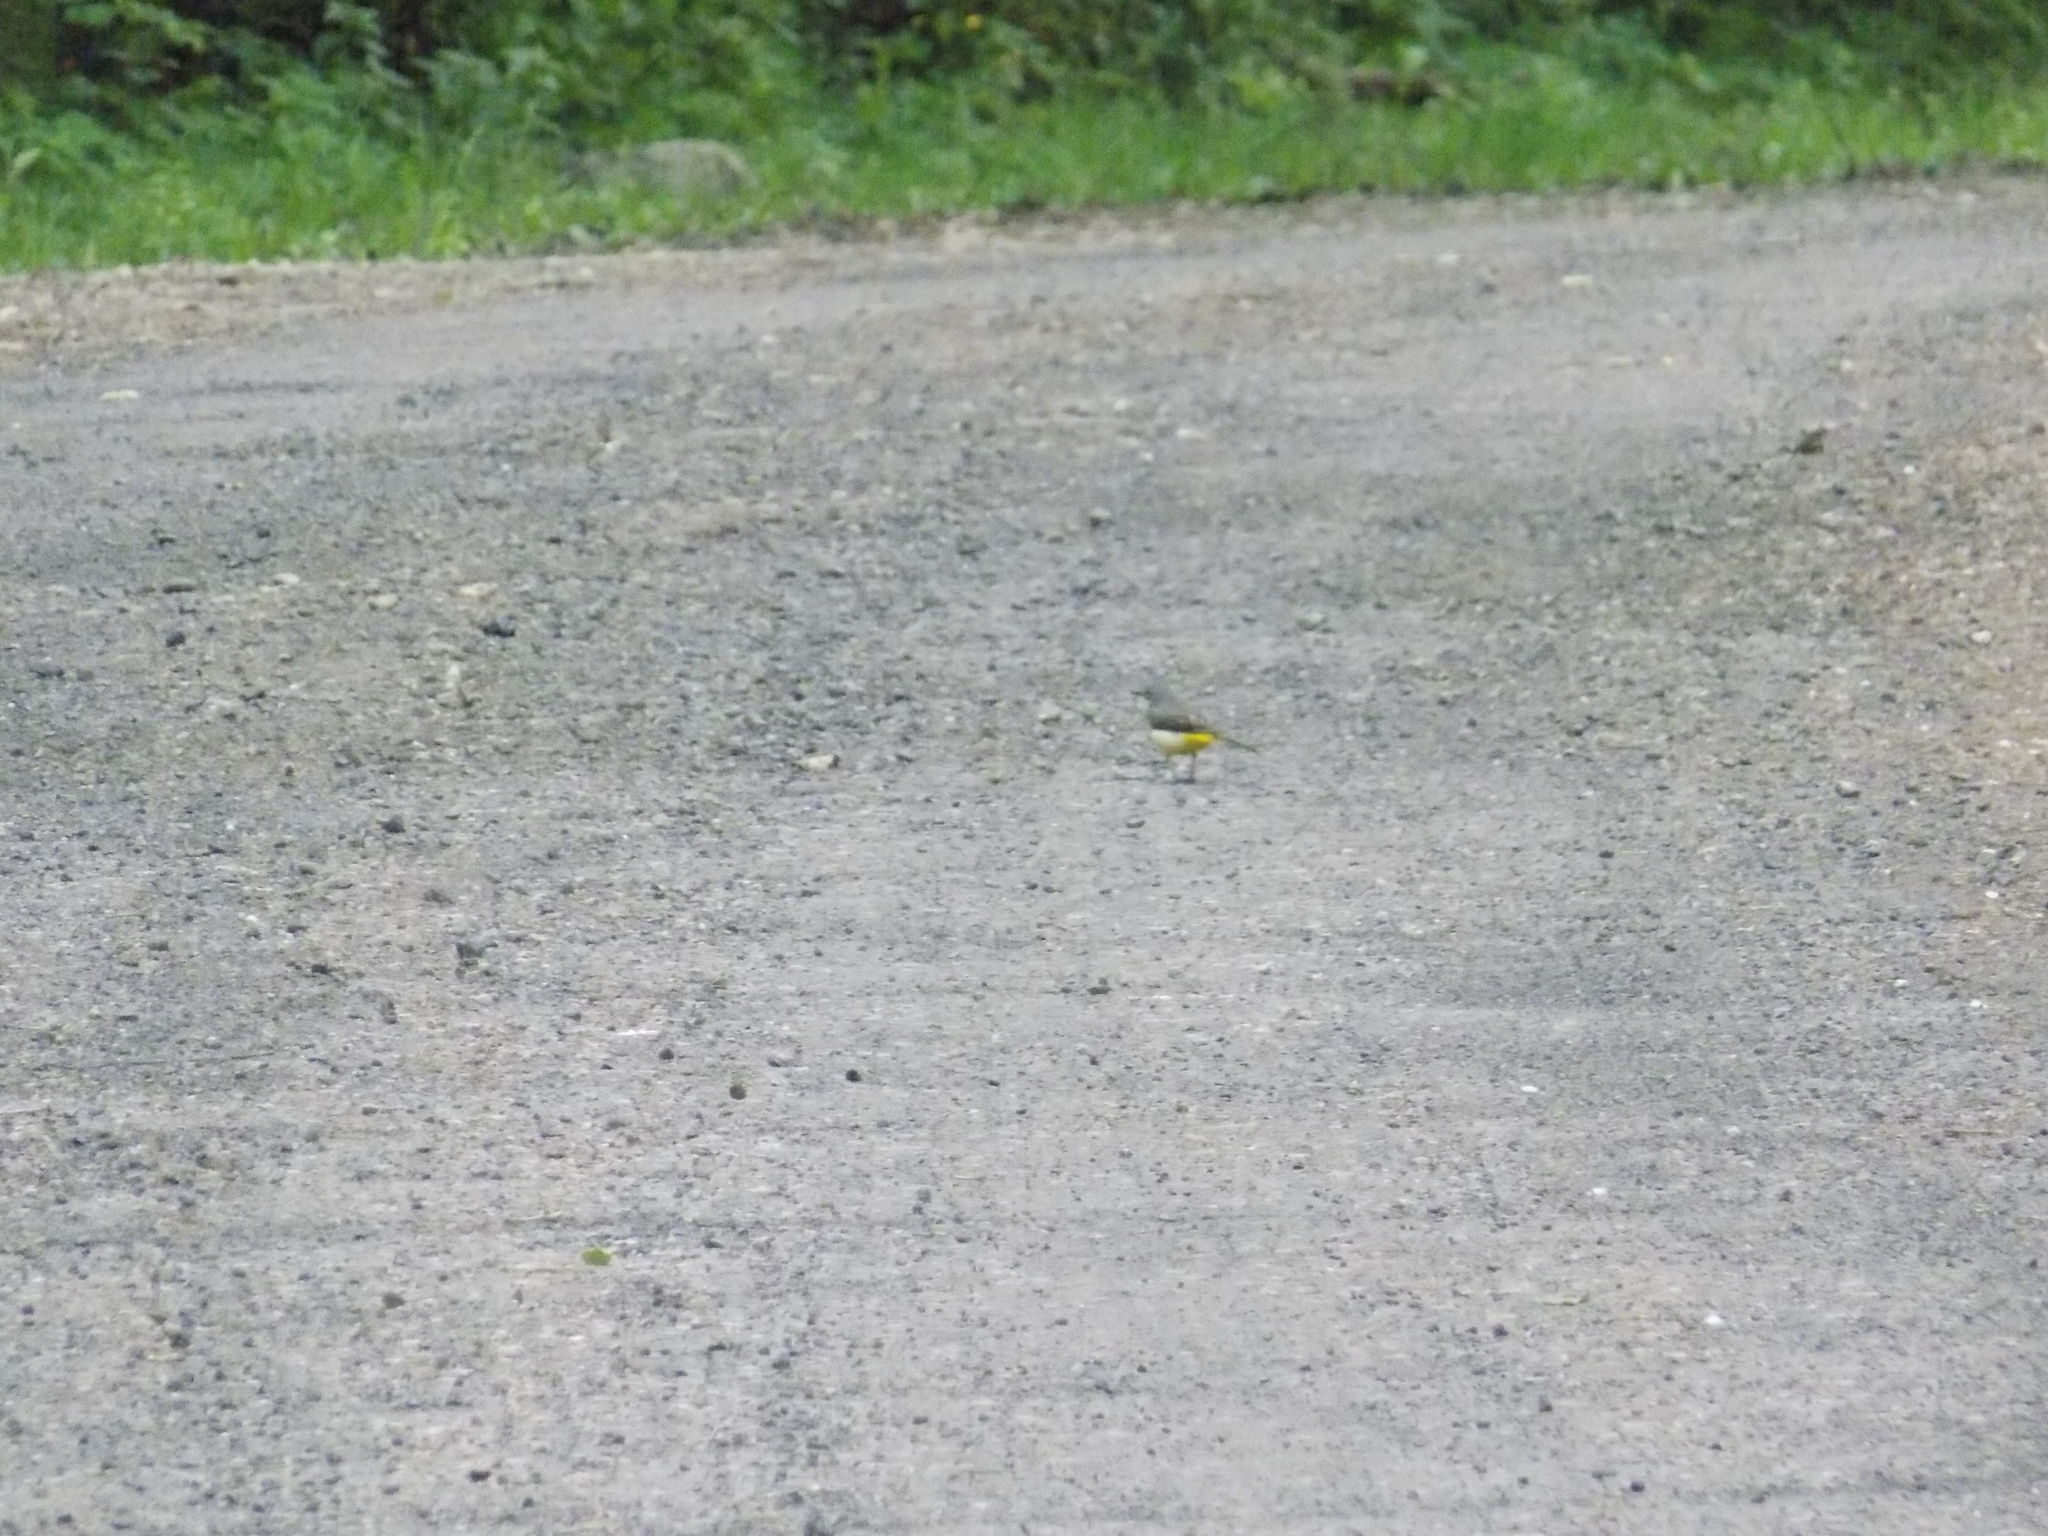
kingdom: Animalia
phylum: Chordata
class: Aves
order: Passeriformes
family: Motacillidae
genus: Motacilla
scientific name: Motacilla cinerea
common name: Grey wagtail
